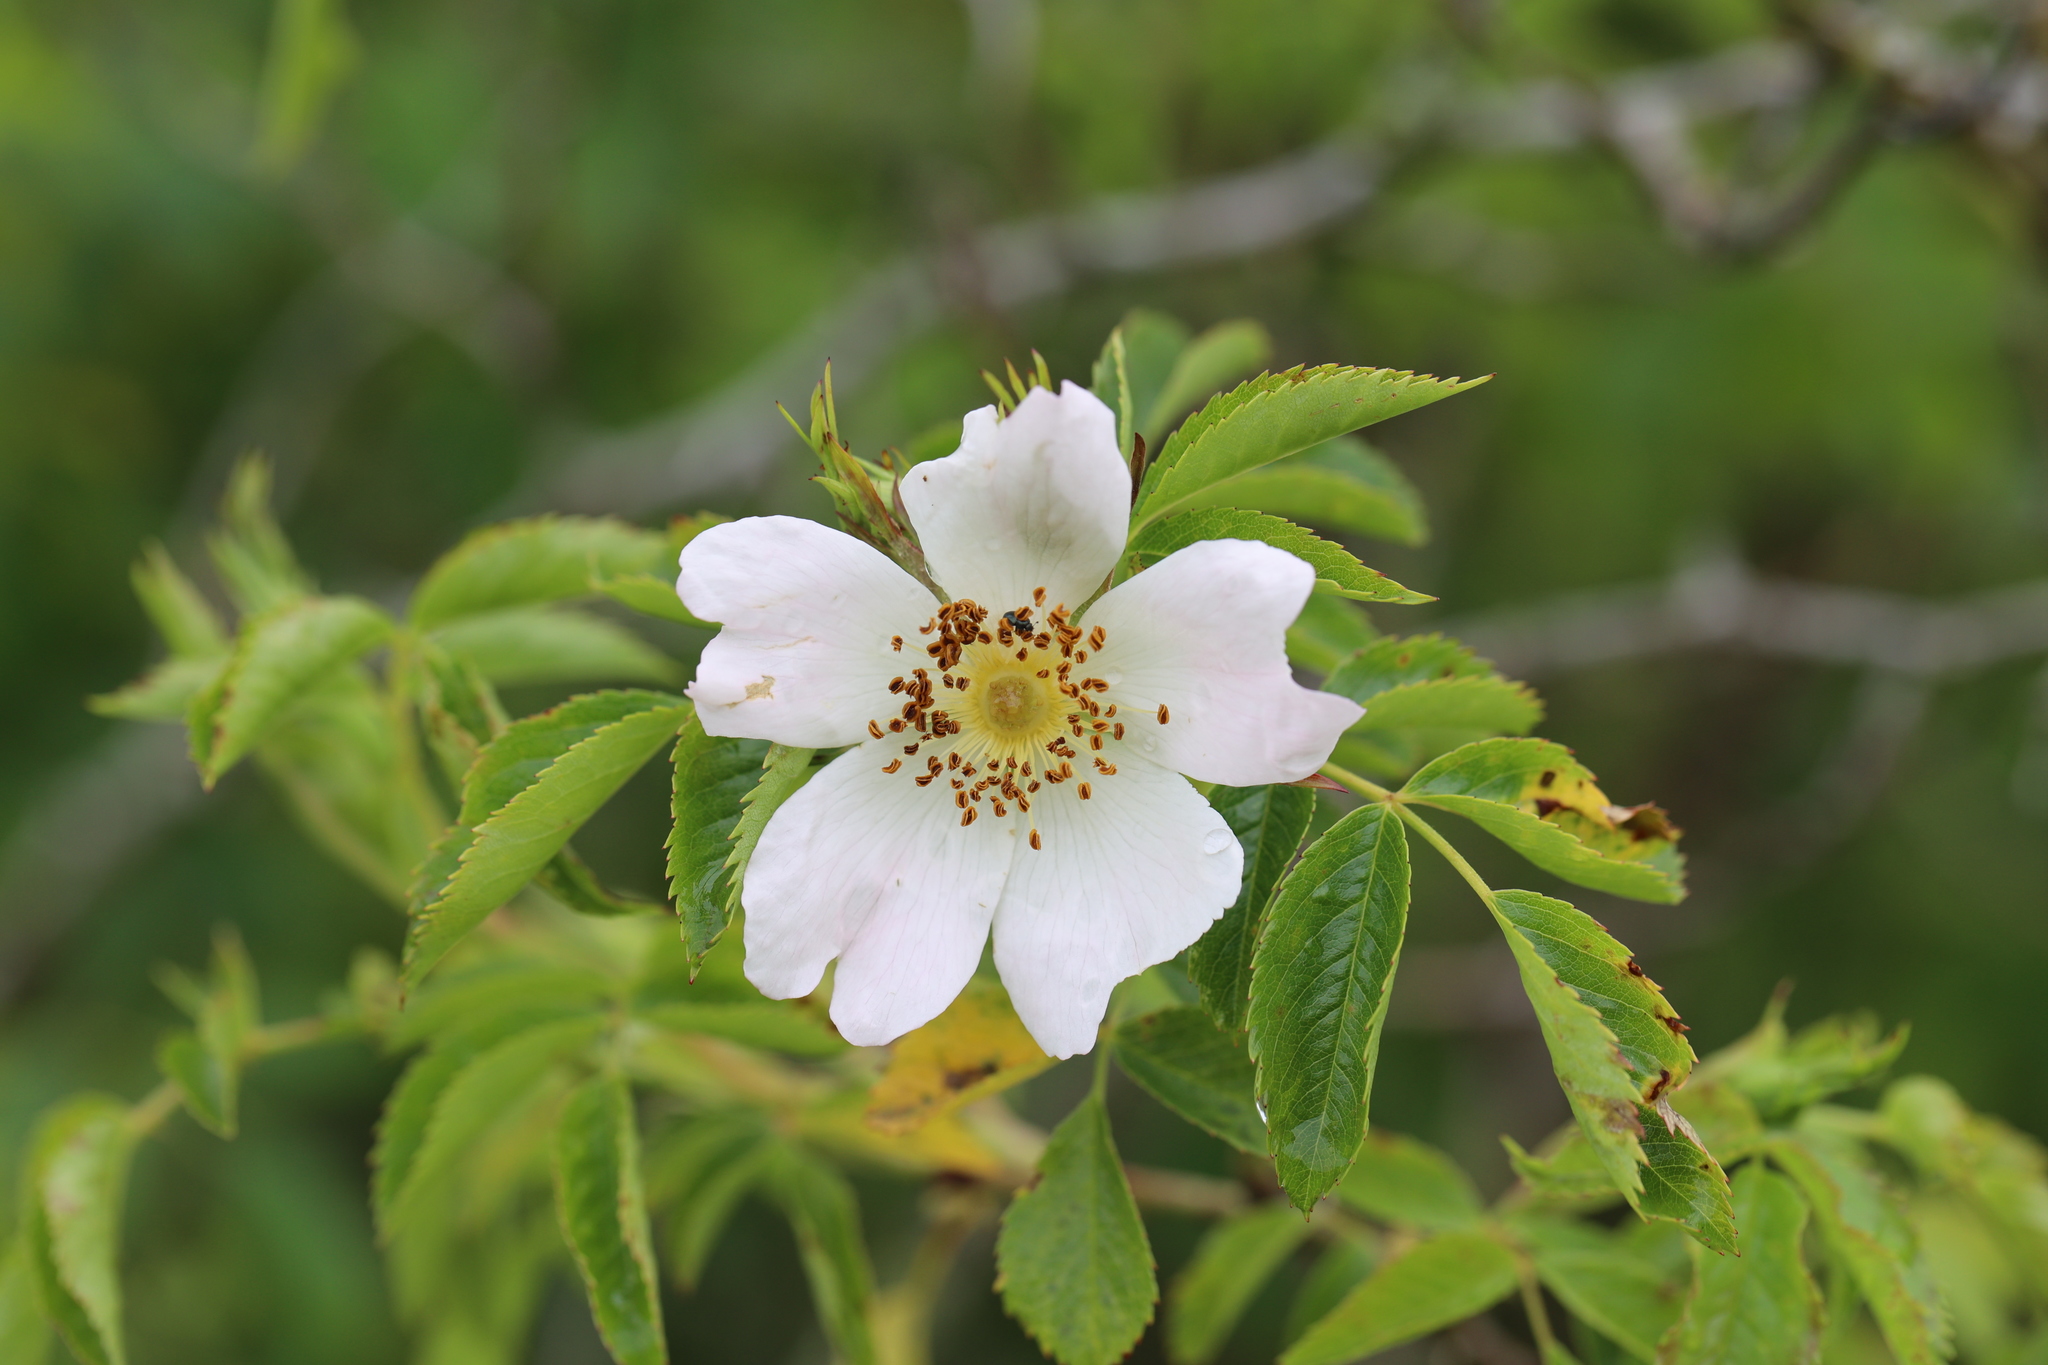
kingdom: Plantae
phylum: Tracheophyta
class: Magnoliopsida
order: Rosales
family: Rosaceae
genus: Rosa
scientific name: Rosa canina
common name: Dog rose
